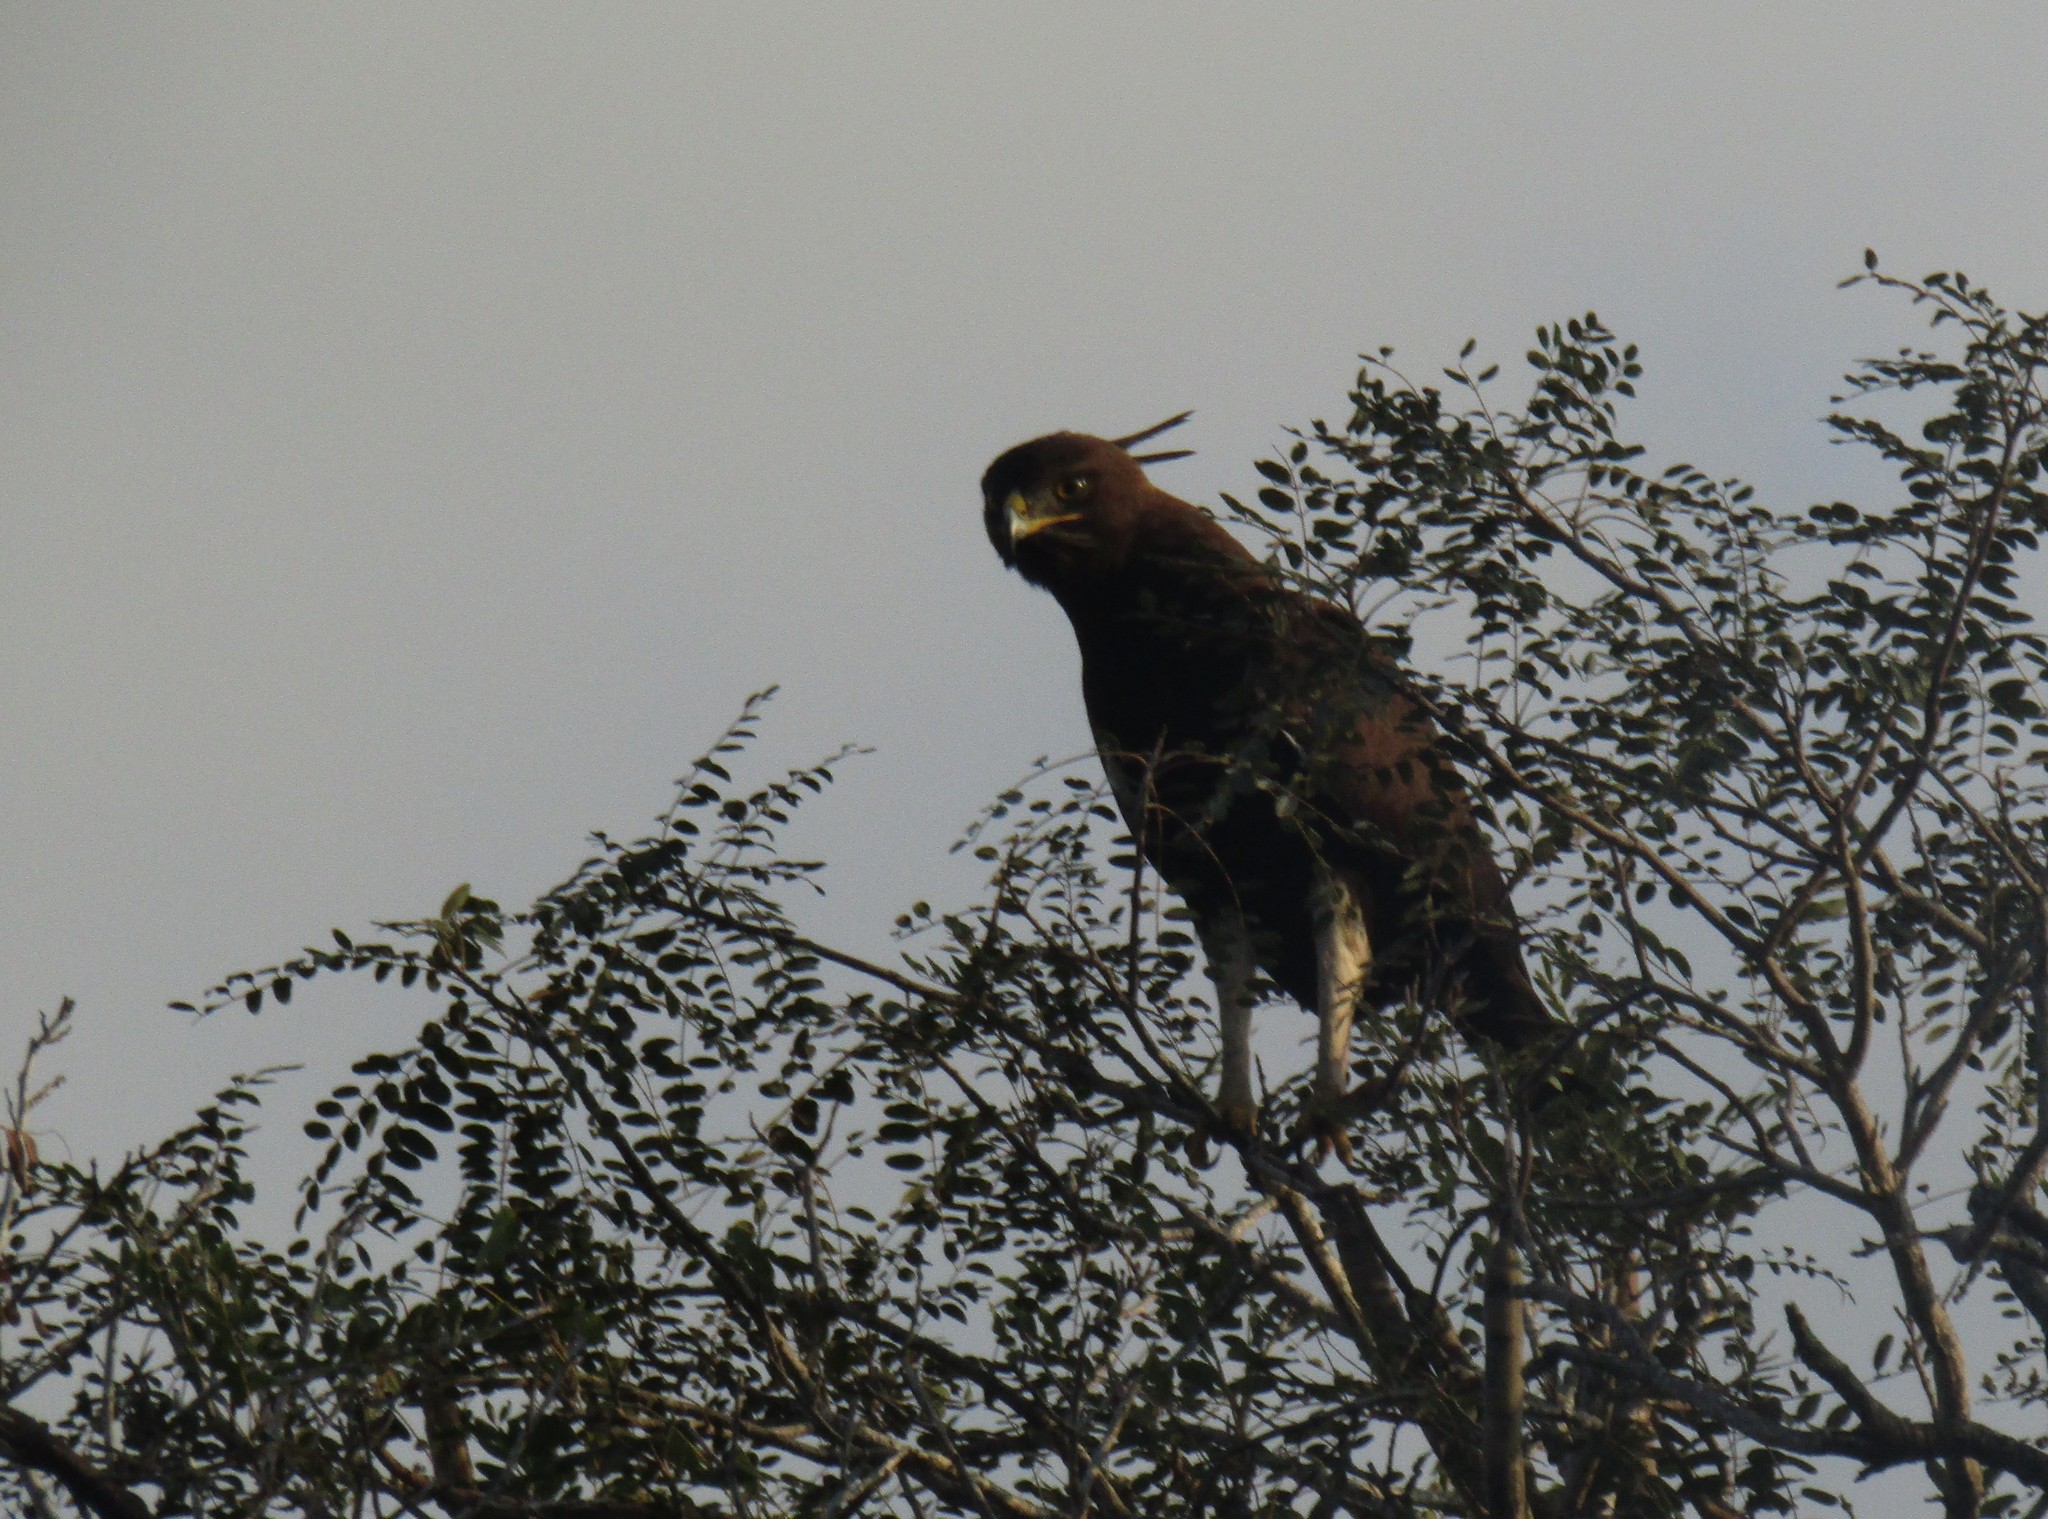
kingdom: Animalia
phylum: Chordata
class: Aves
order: Accipitriformes
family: Accipitridae
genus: Lophaetus
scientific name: Lophaetus occipitalis
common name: Long-crested eagle
